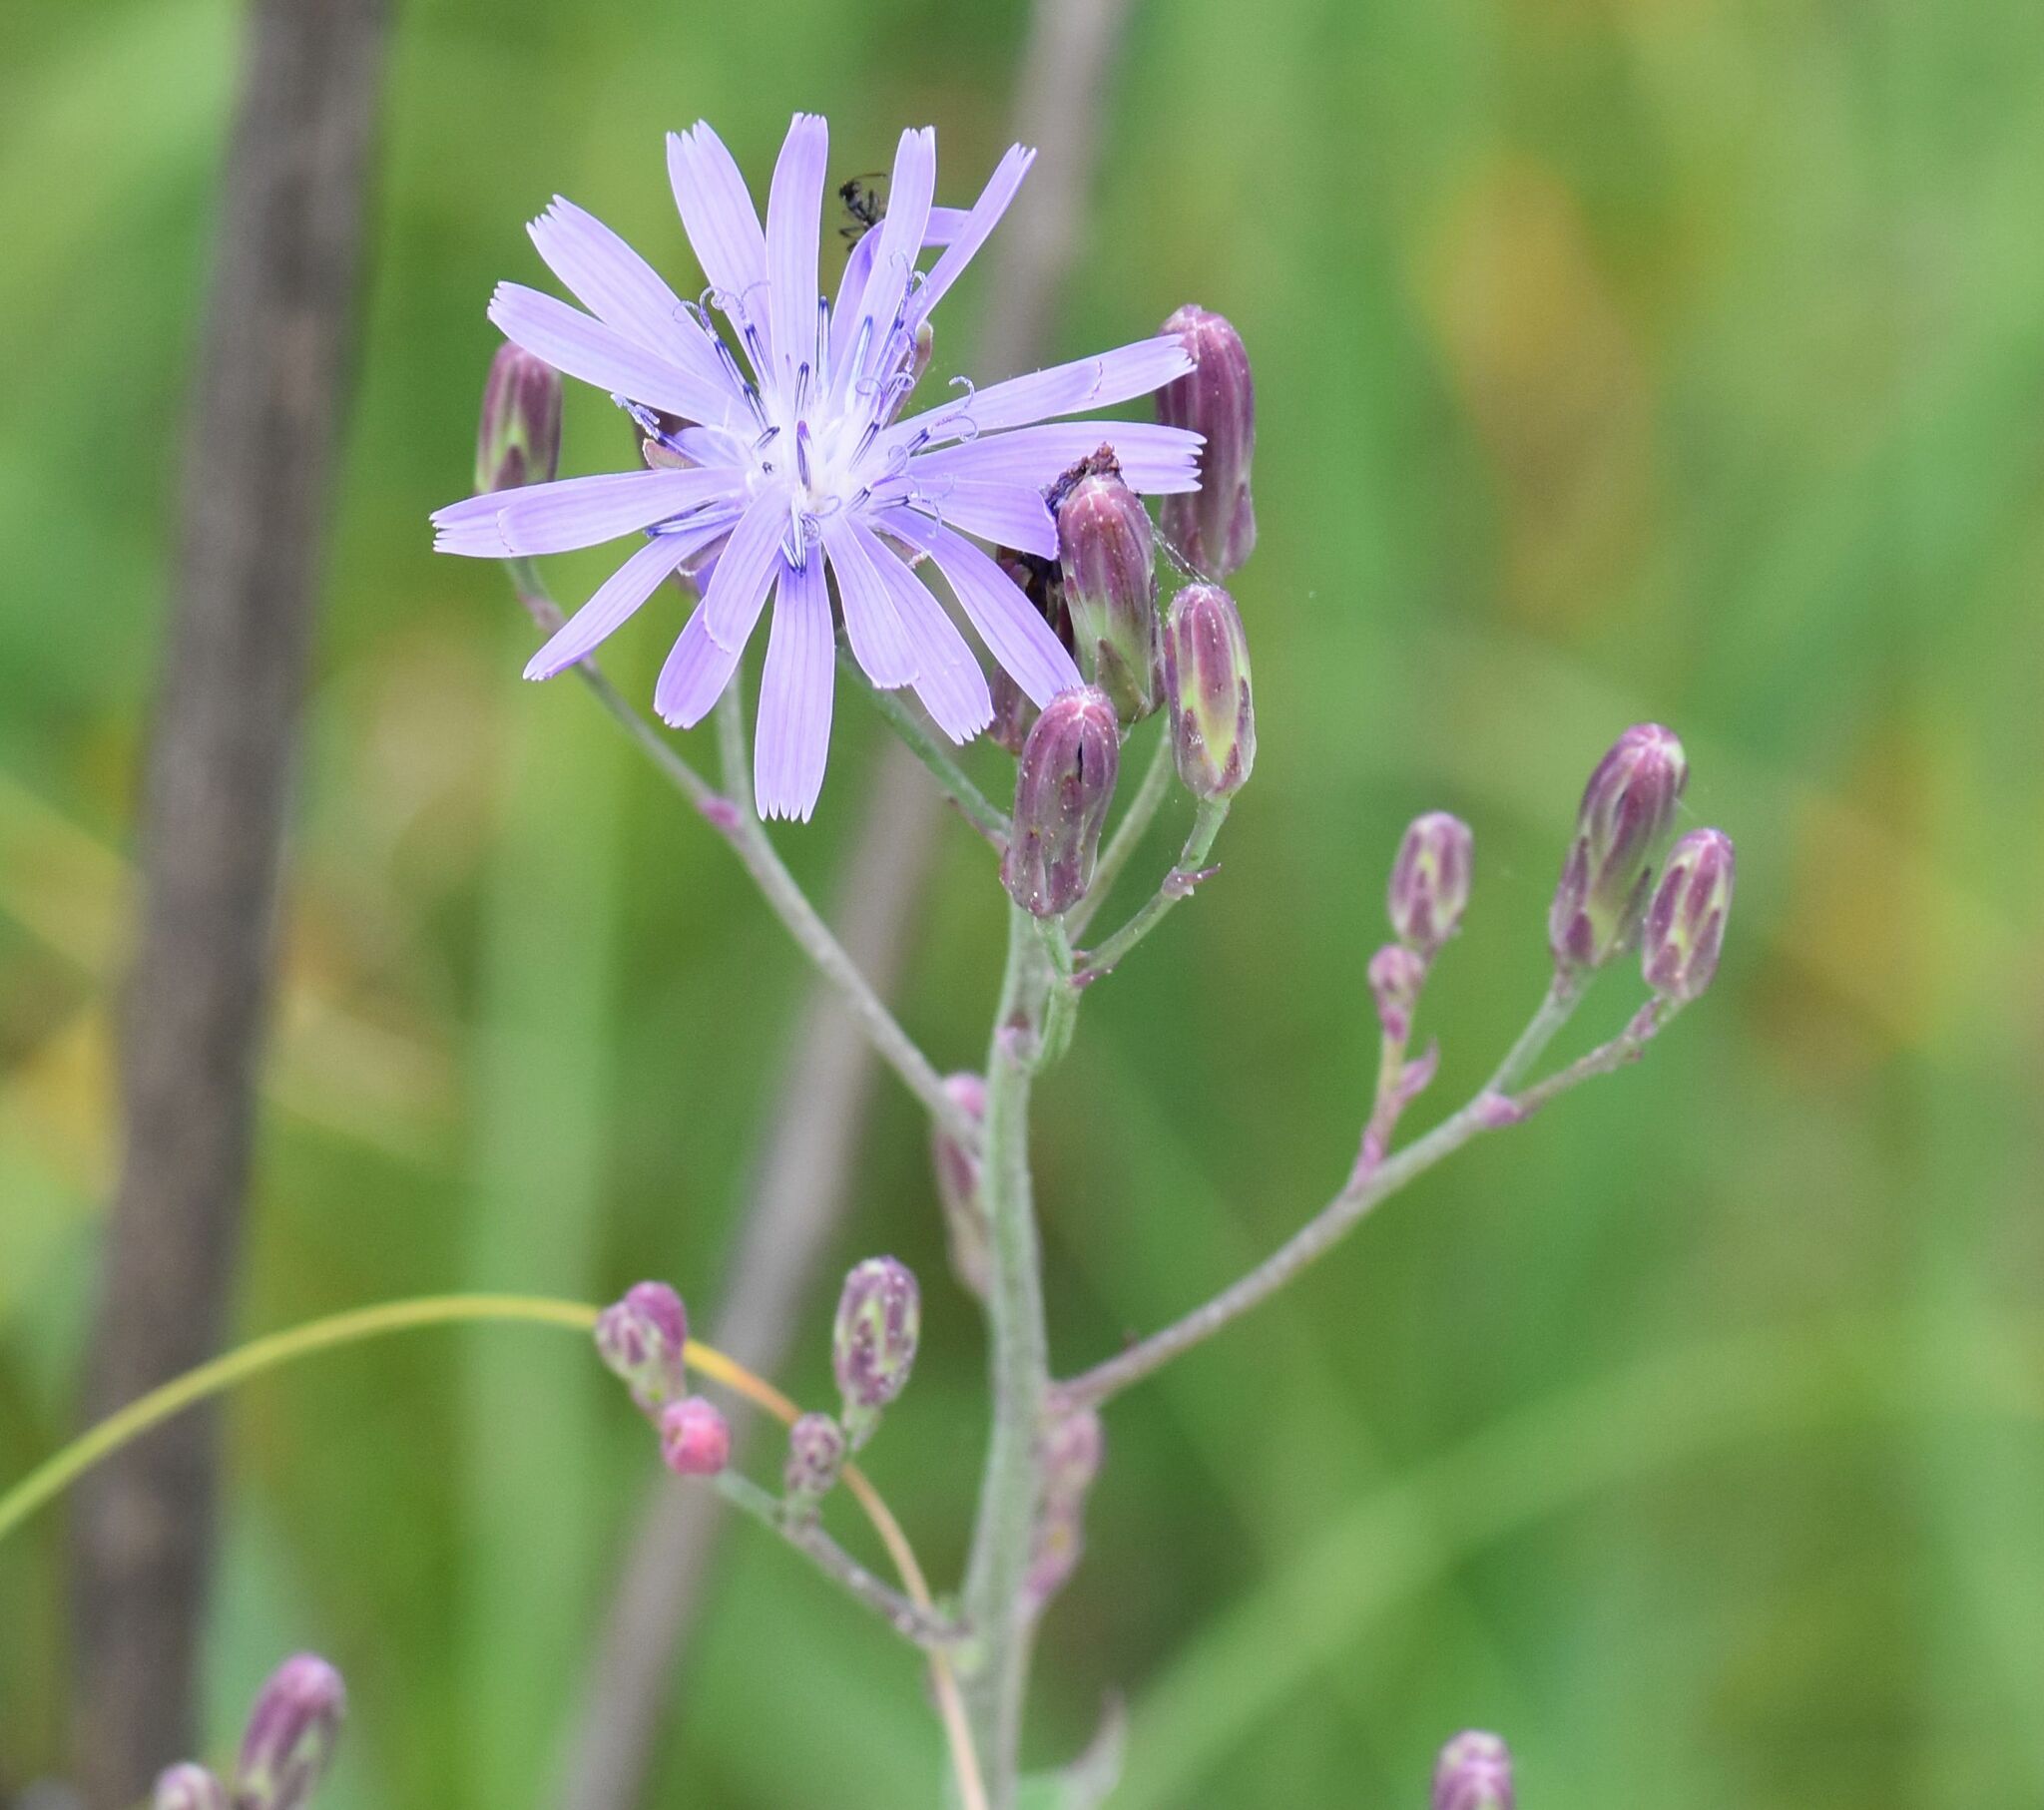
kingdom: Plantae
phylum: Tracheophyta
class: Magnoliopsida
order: Asterales
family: Asteraceae
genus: Lactuca
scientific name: Lactuca pulchella
